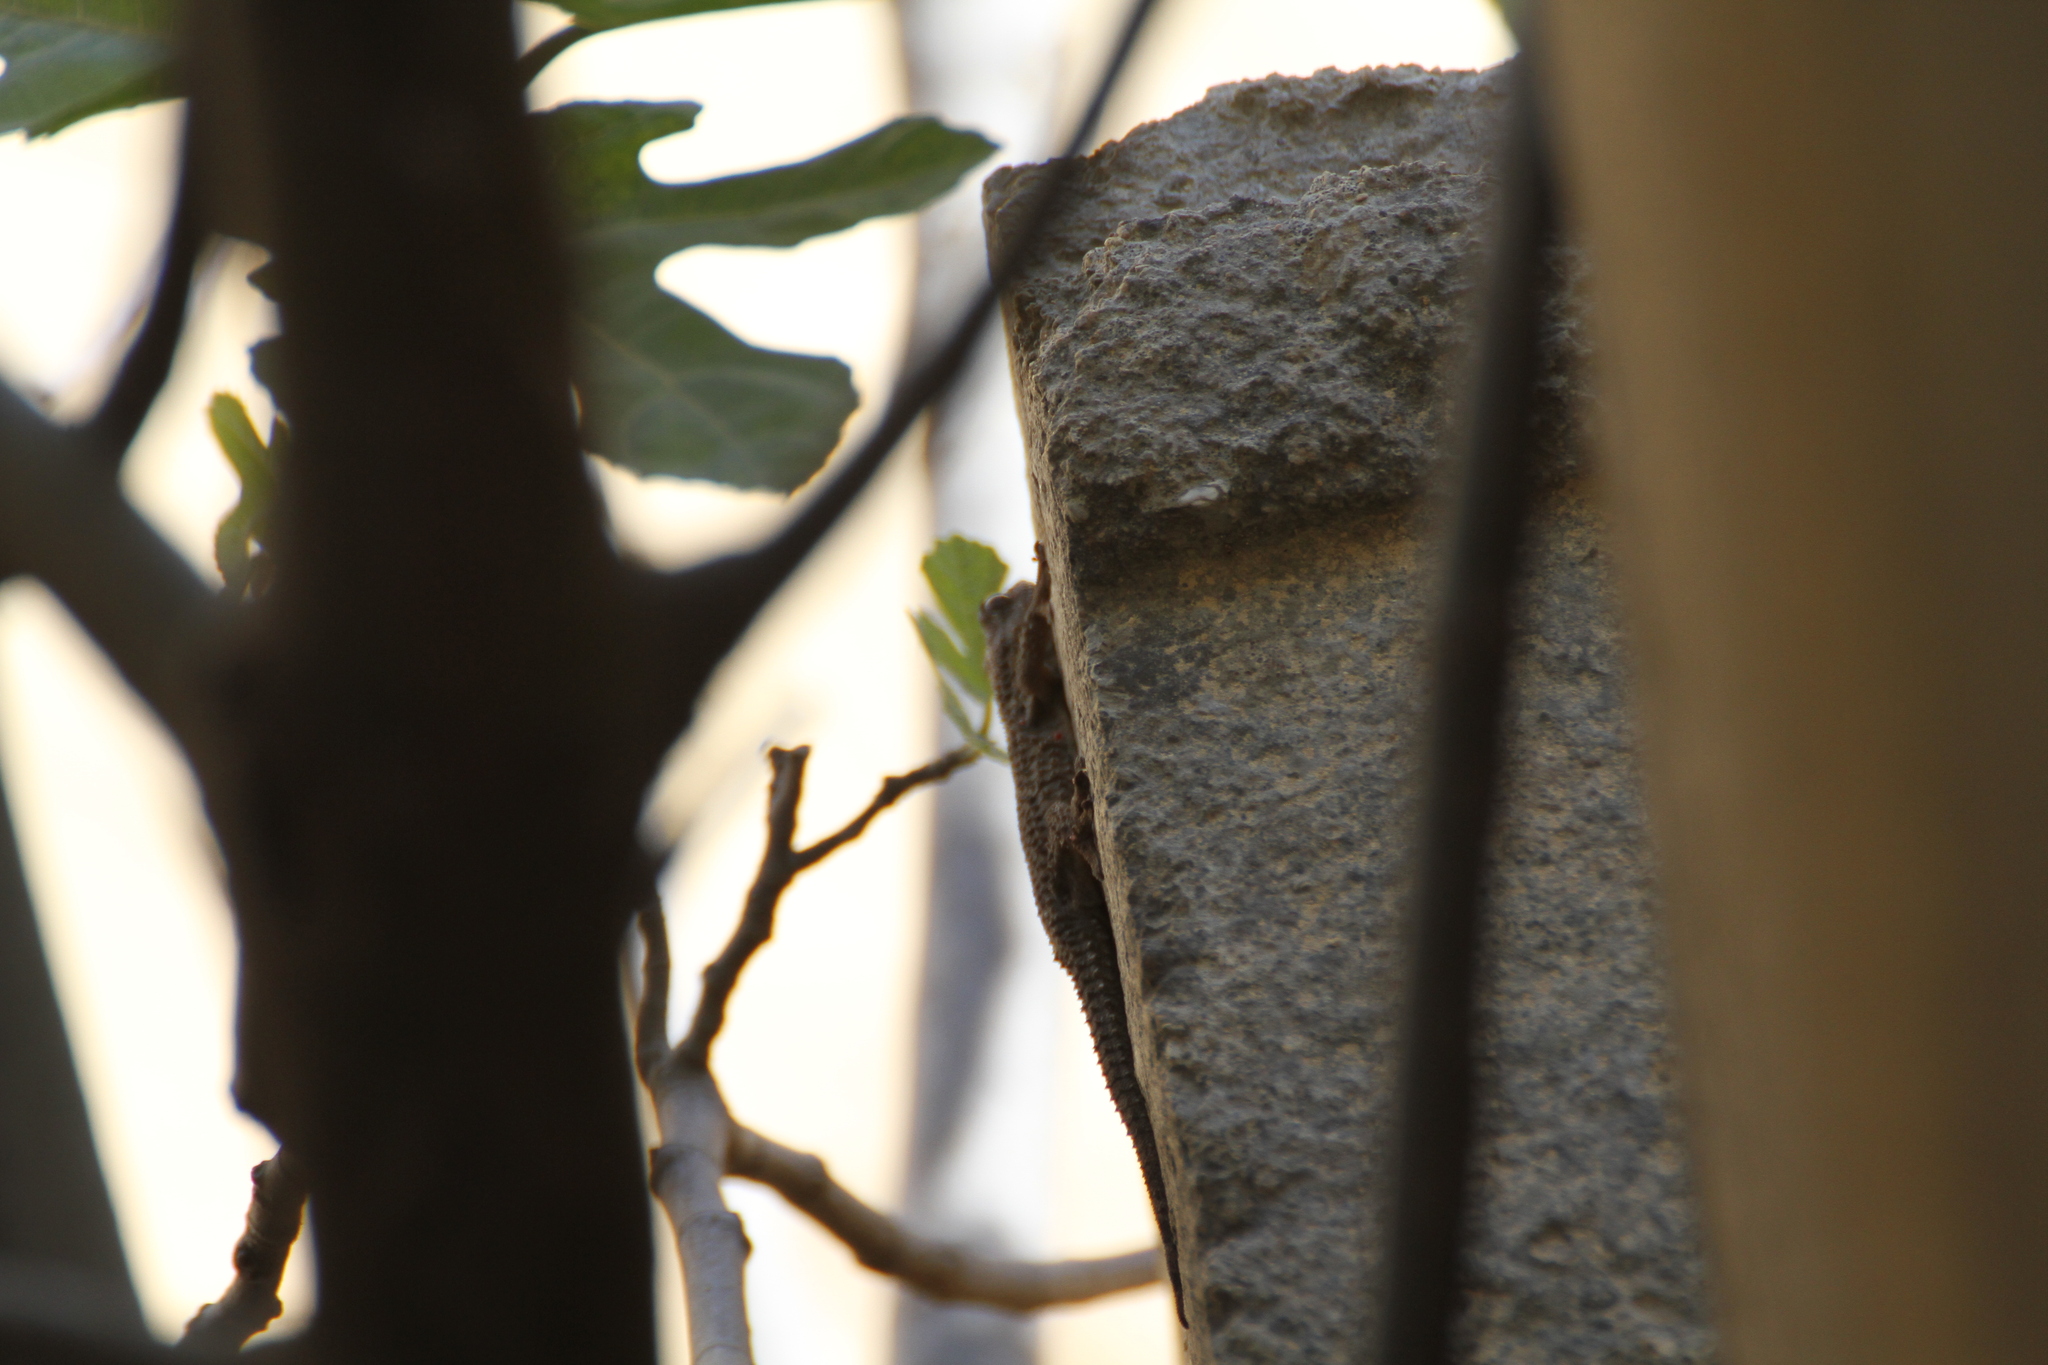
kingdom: Animalia
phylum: Chordata
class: Squamata
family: Phyllodactylidae
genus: Tarentola
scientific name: Tarentola mauritanica
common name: Moorish gecko
